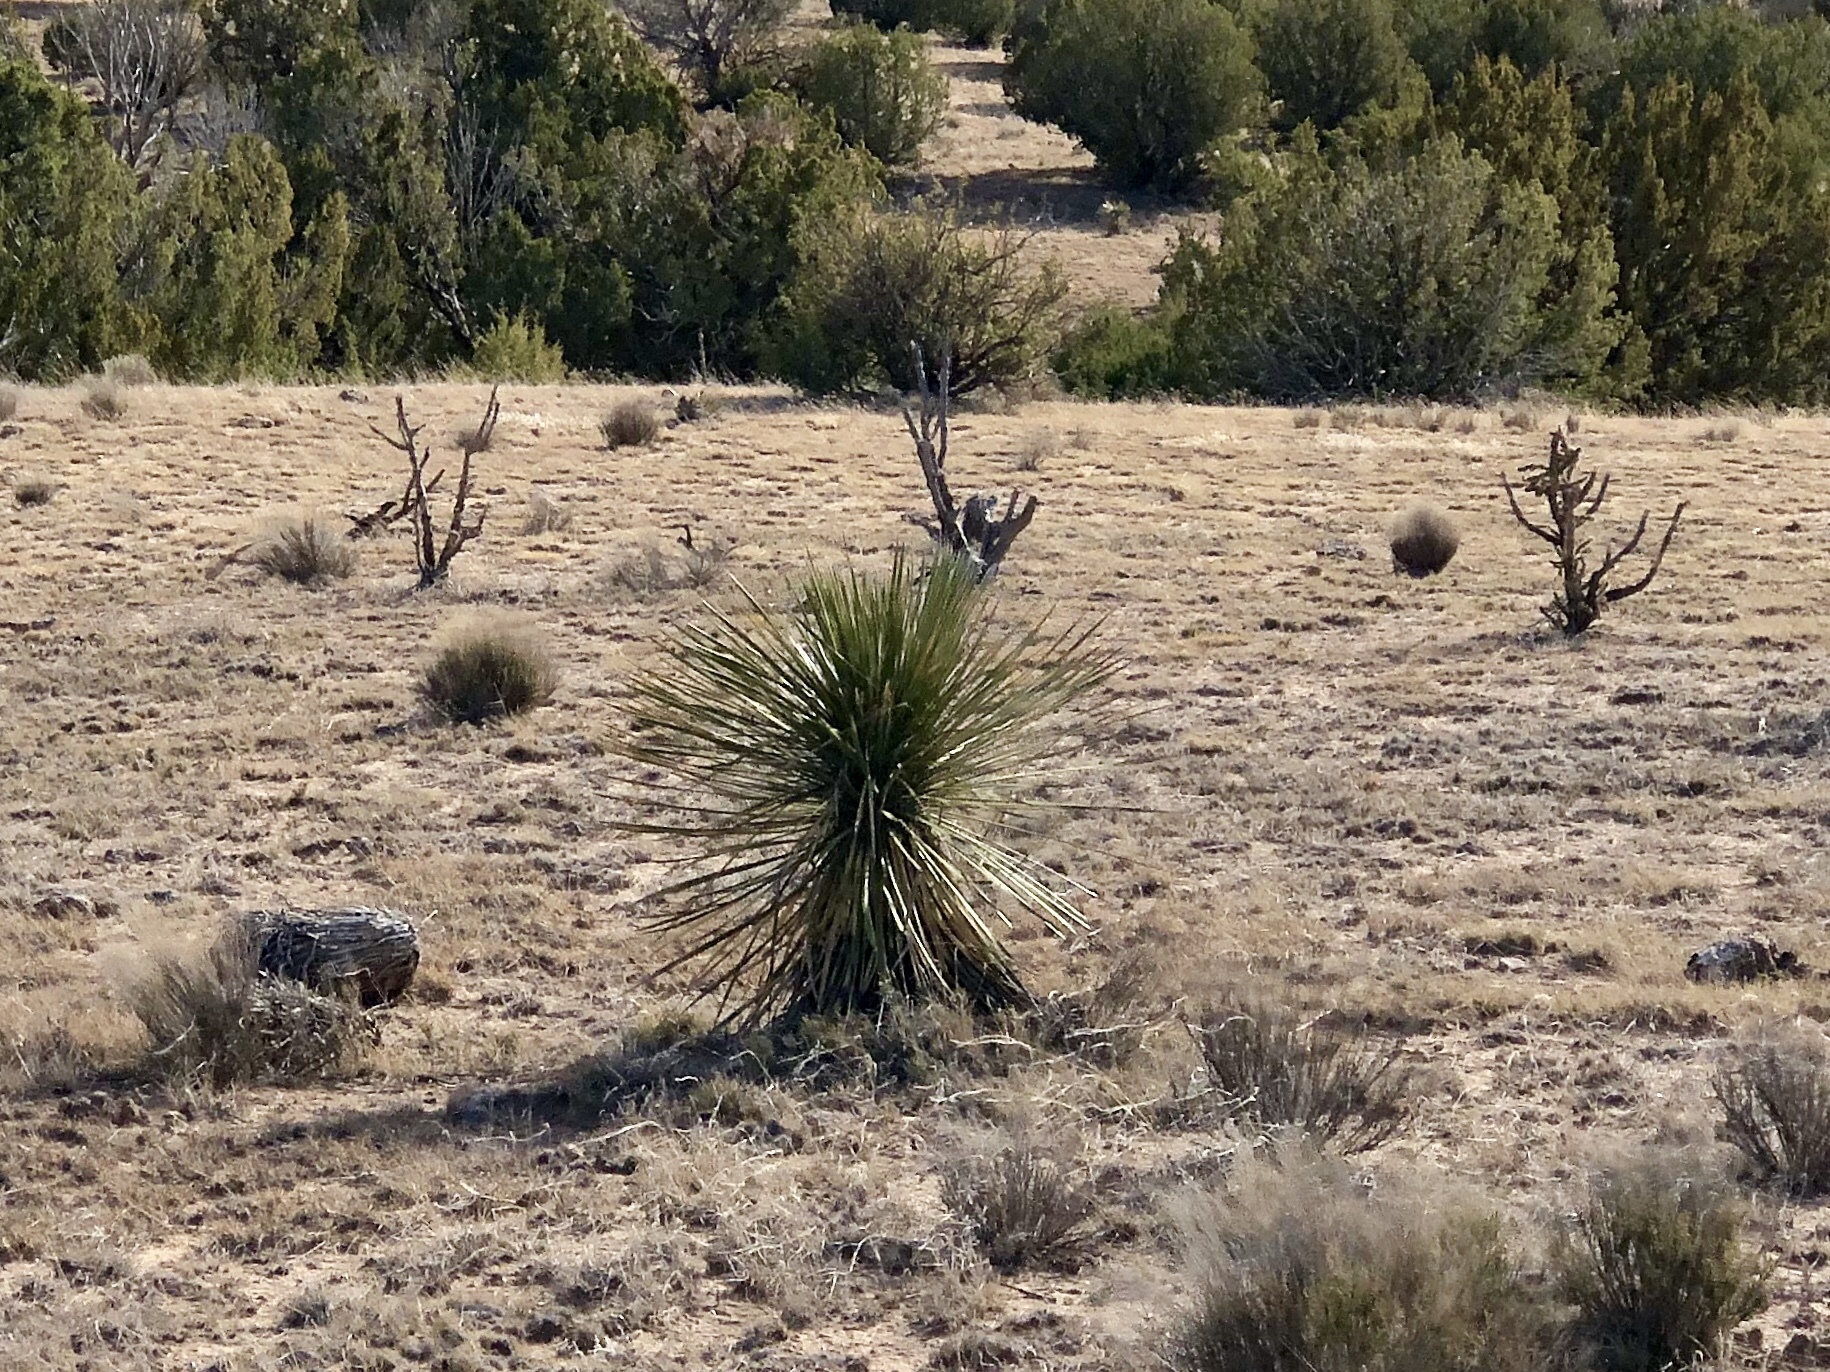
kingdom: Plantae
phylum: Tracheophyta
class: Liliopsida
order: Asparagales
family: Asparagaceae
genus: Yucca
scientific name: Yucca elata
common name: Palmella
